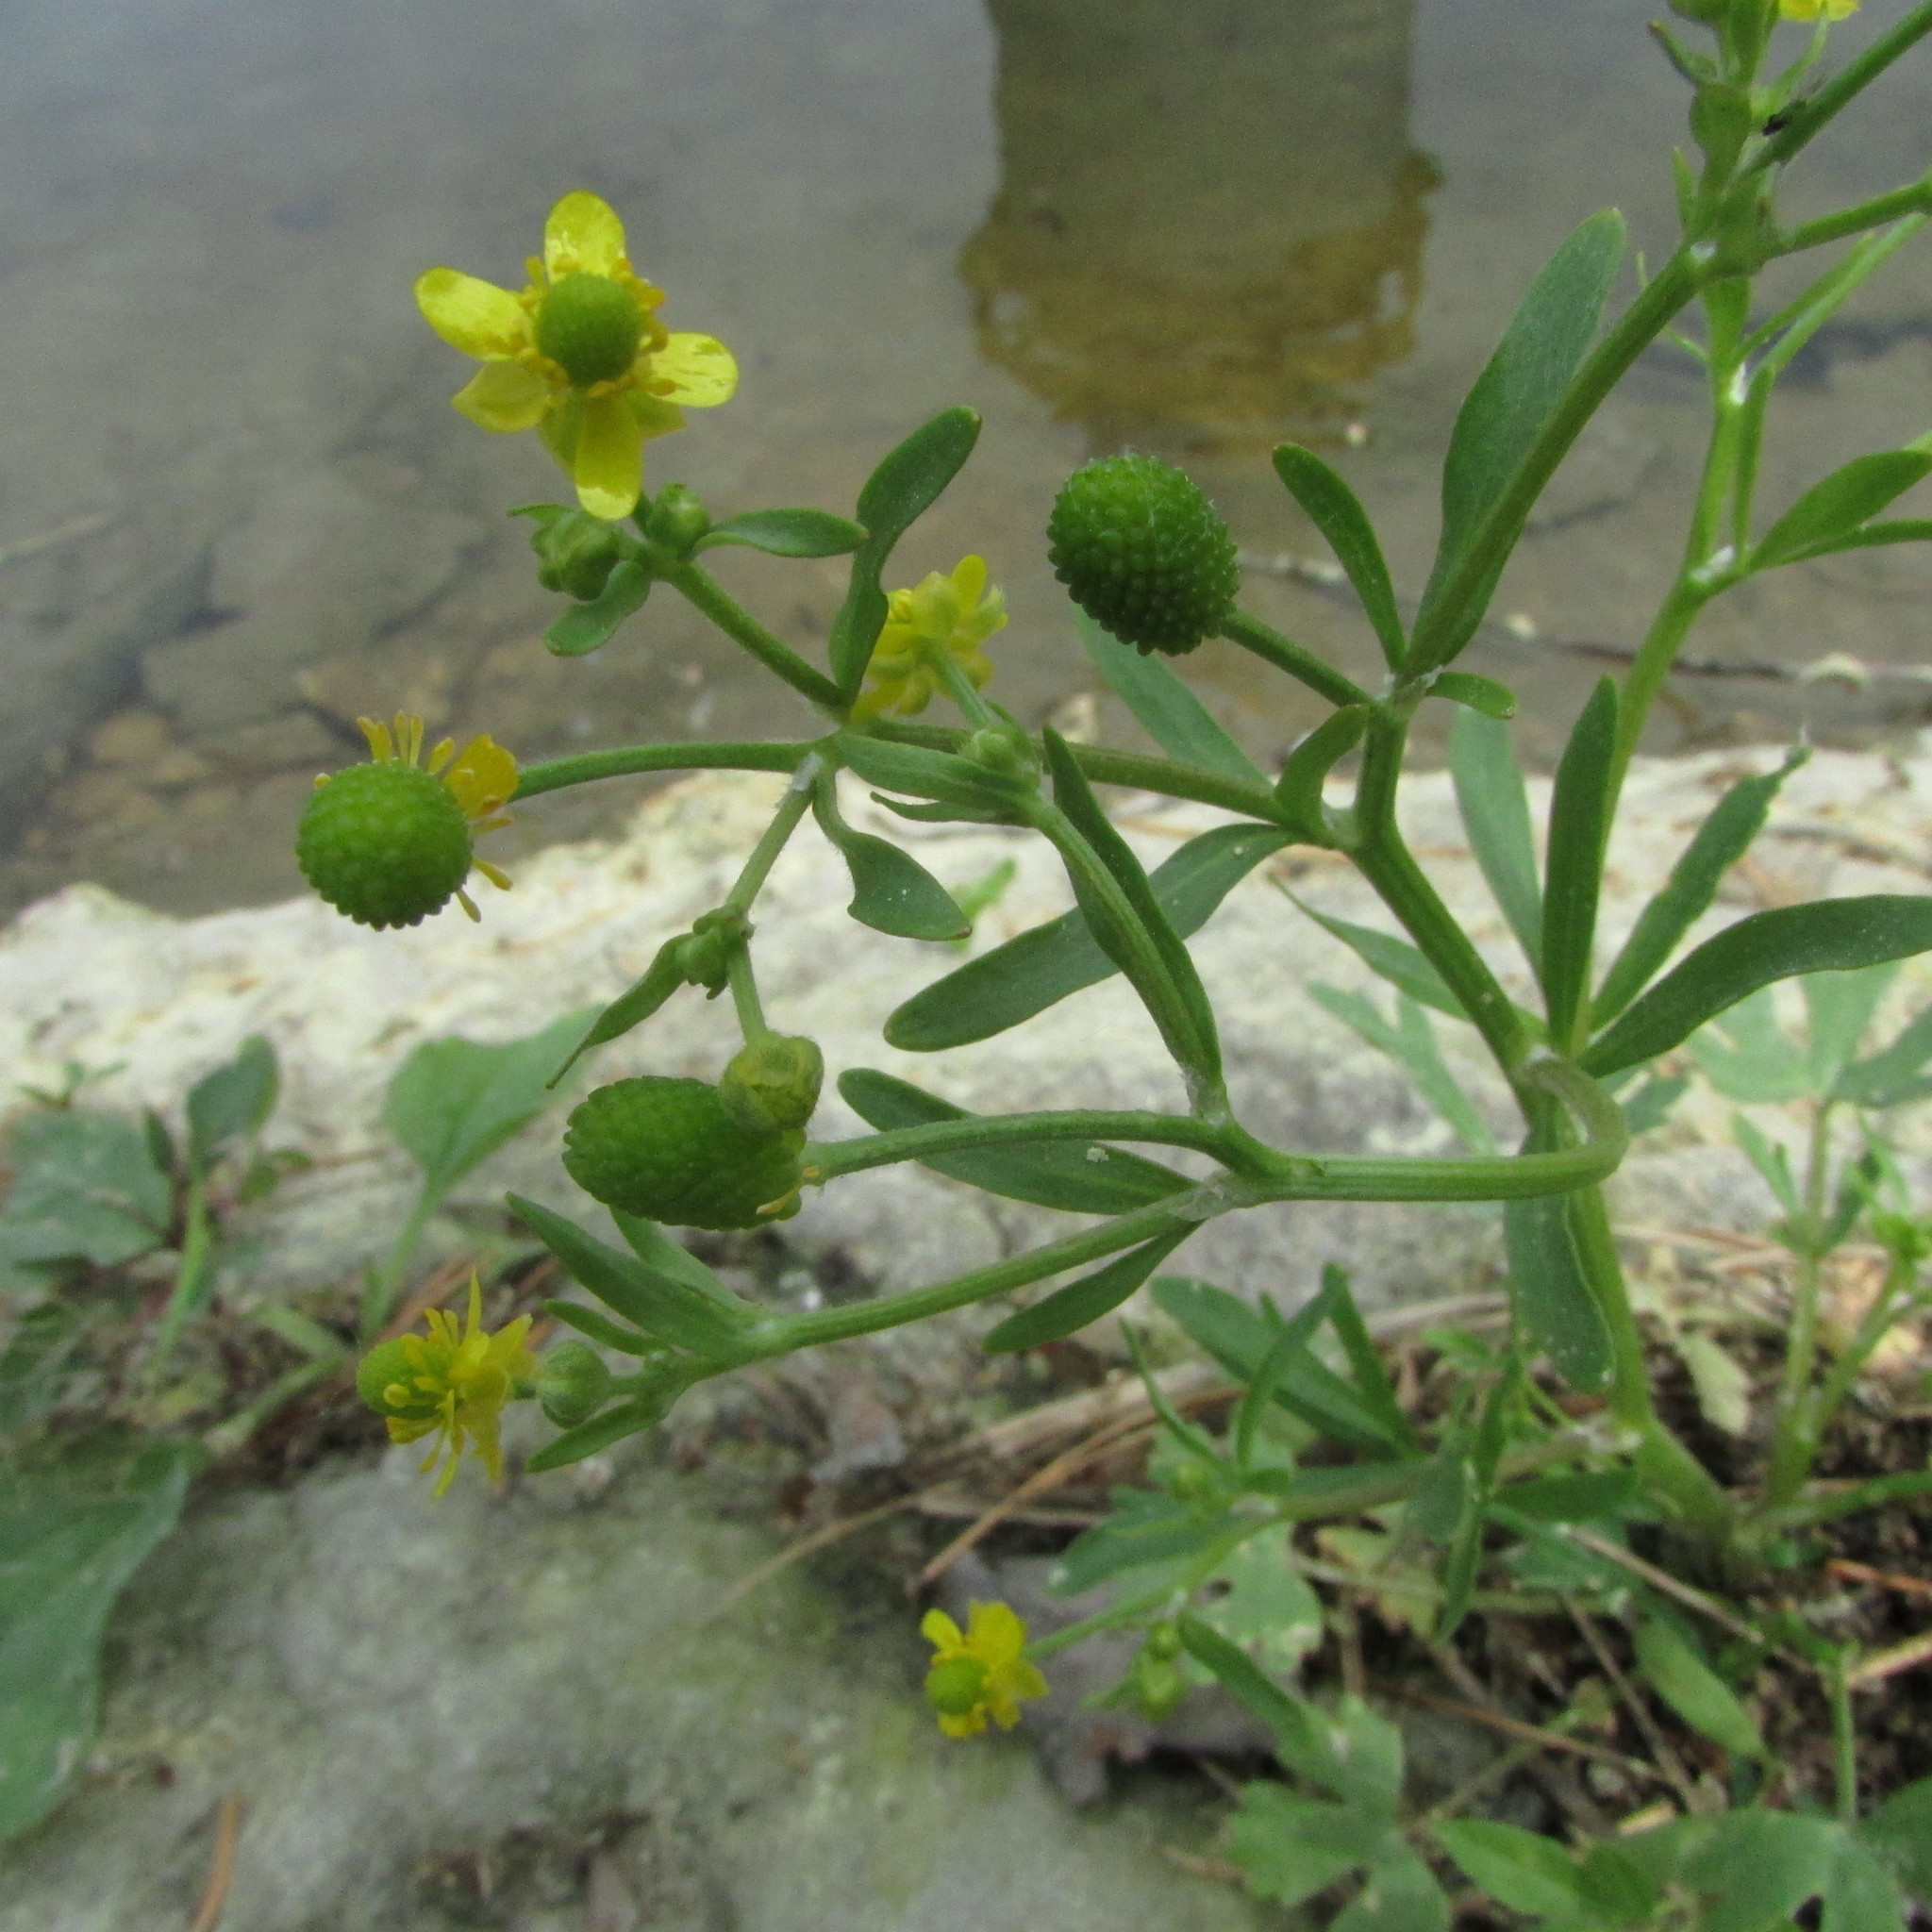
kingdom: Plantae
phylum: Tracheophyta
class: Magnoliopsida
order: Ranunculales
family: Ranunculaceae
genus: Ranunculus
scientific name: Ranunculus sceleratus
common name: Celery-leaved buttercup
